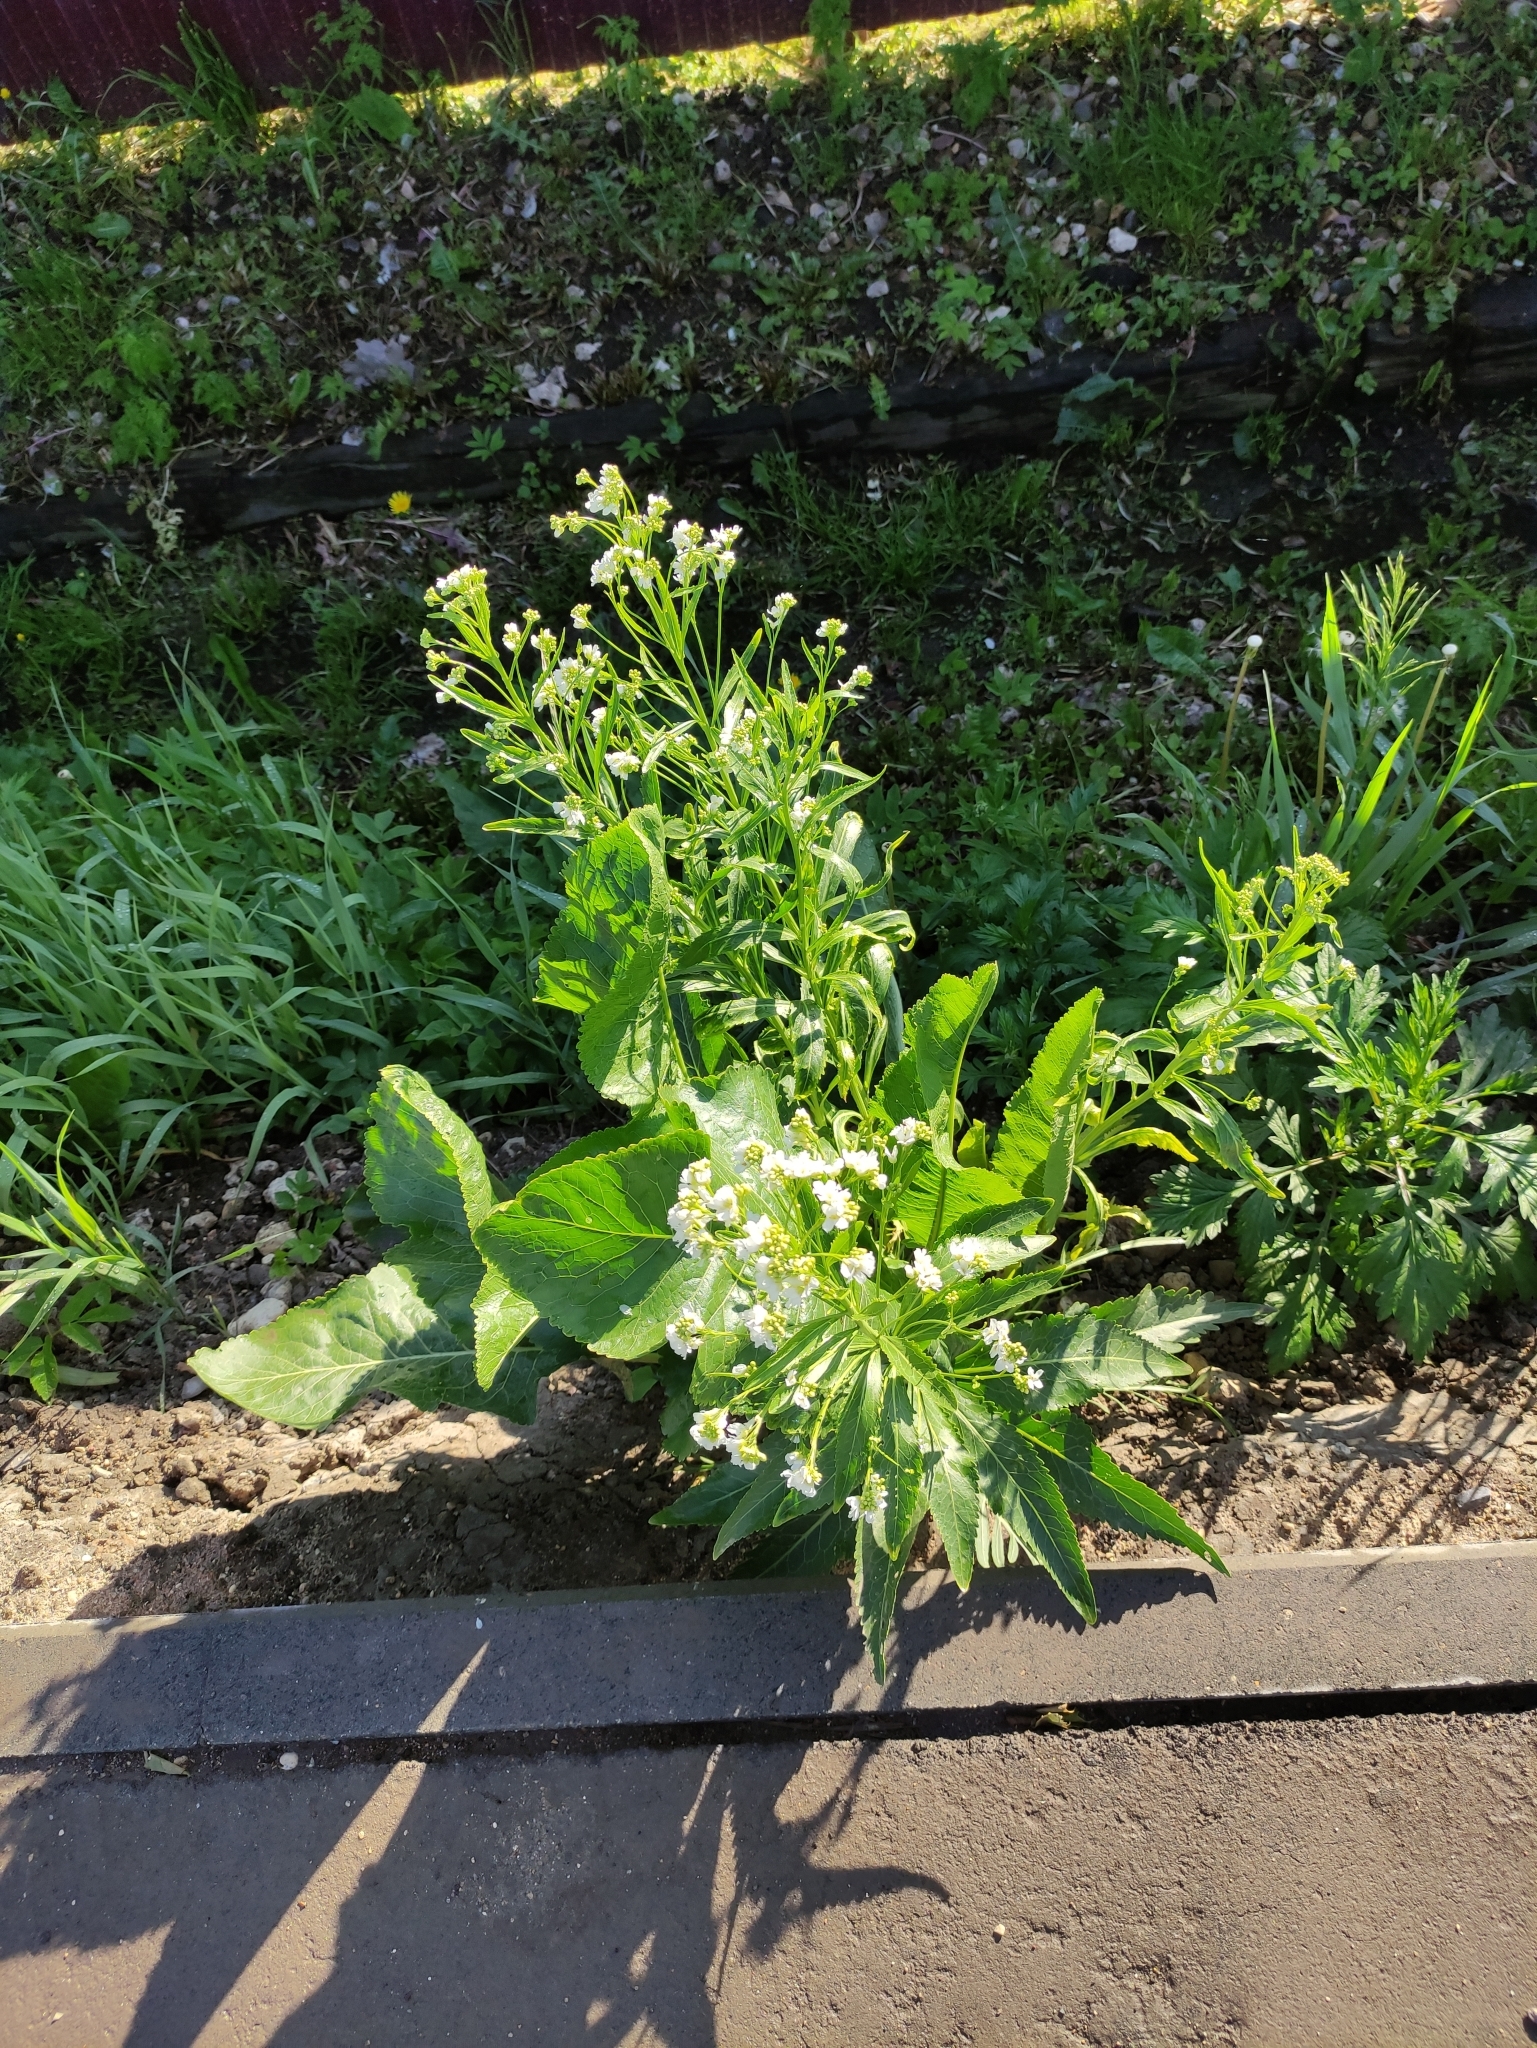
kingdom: Plantae
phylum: Tracheophyta
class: Magnoliopsida
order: Brassicales
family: Brassicaceae
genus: Armoracia
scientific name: Armoracia rusticana
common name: Horseradish
